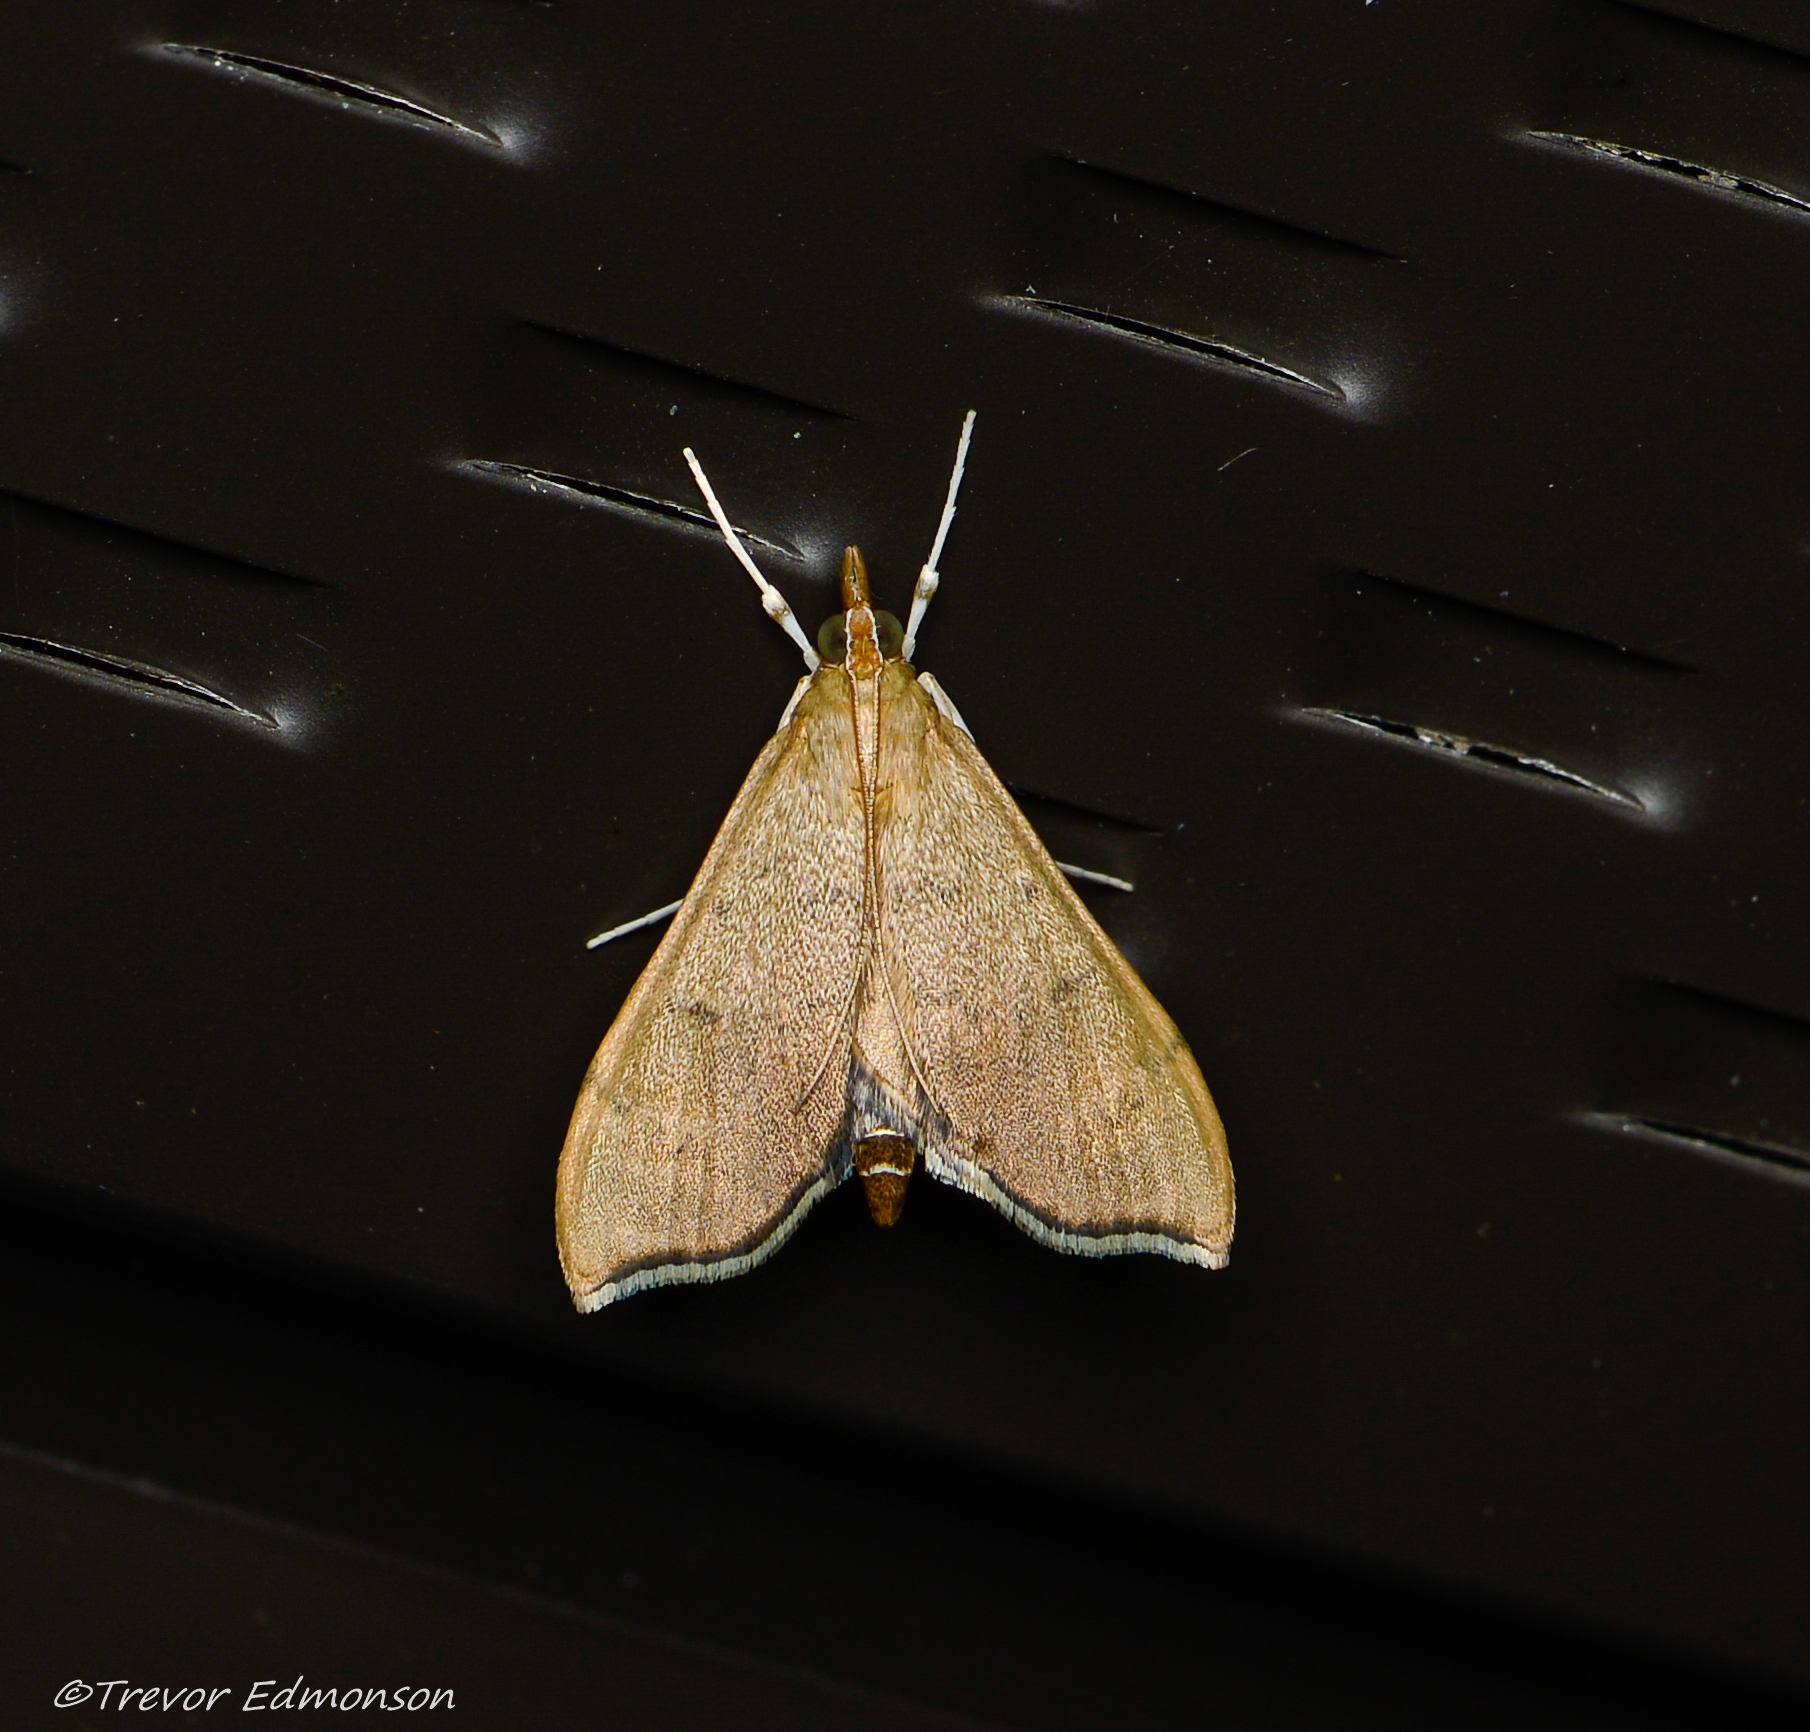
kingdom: Animalia
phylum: Arthropoda
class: Insecta
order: Lepidoptera
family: Crambidae
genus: Sericoplaga
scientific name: Sericoplaga externalis
